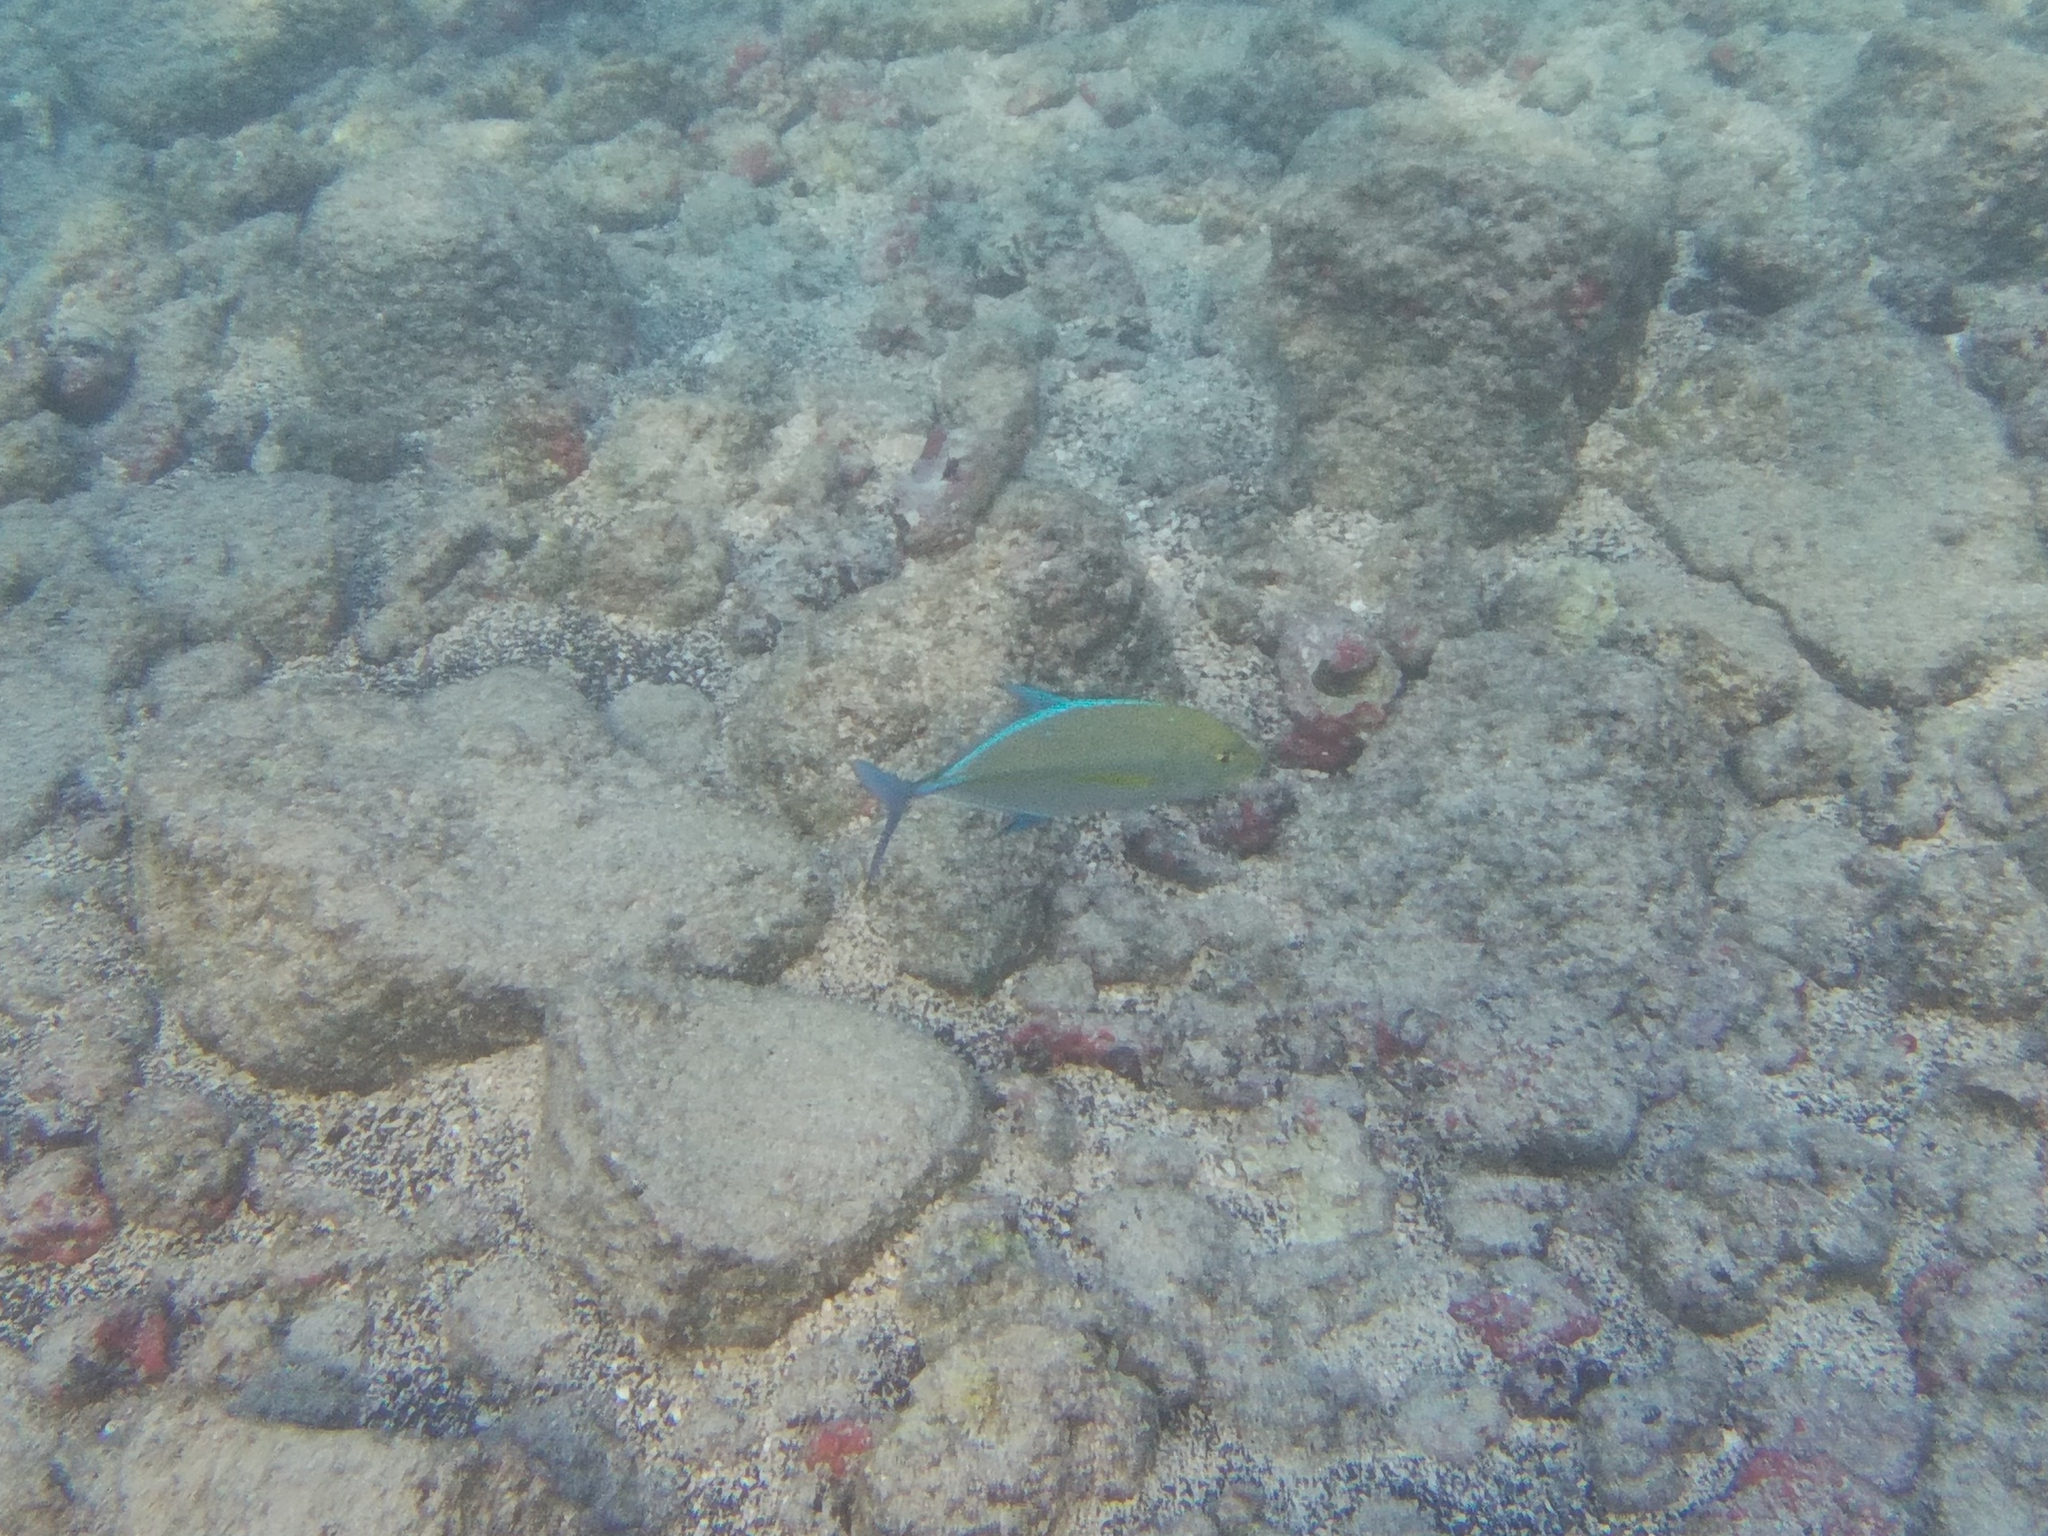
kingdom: Animalia
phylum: Chordata
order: Perciformes
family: Carangidae
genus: Caranx
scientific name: Caranx melampygus
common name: Bluefin trevally
